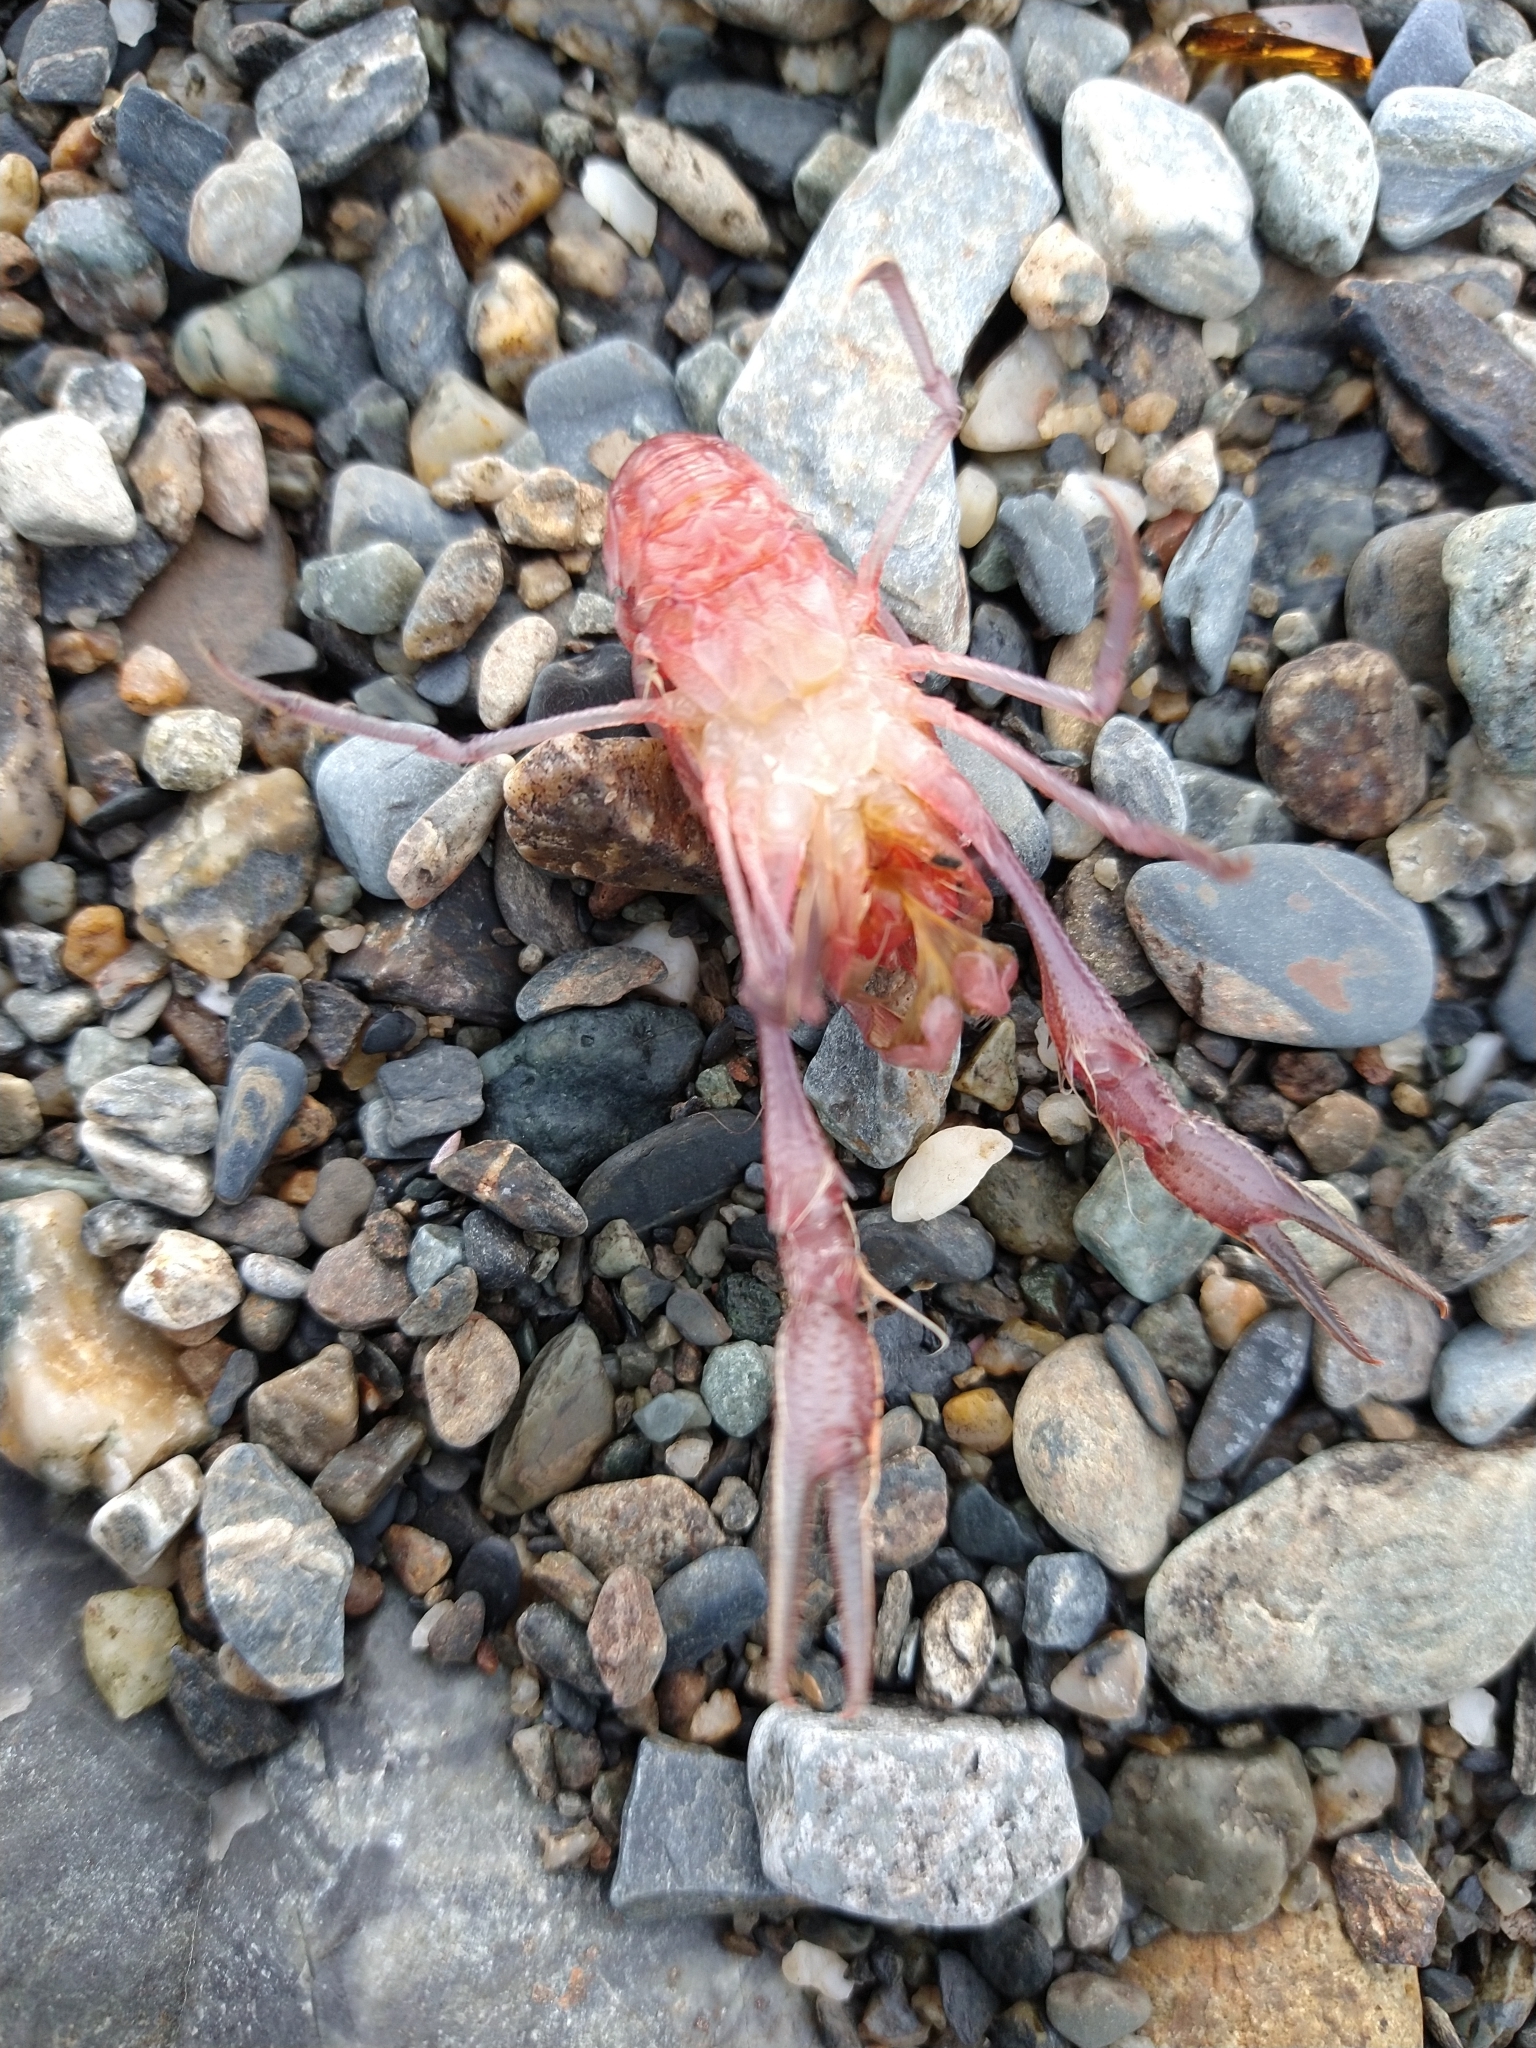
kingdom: Animalia
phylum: Arthropoda
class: Malacostraca
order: Decapoda
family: Munididae
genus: Grimothea
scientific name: Grimothea gregaria
